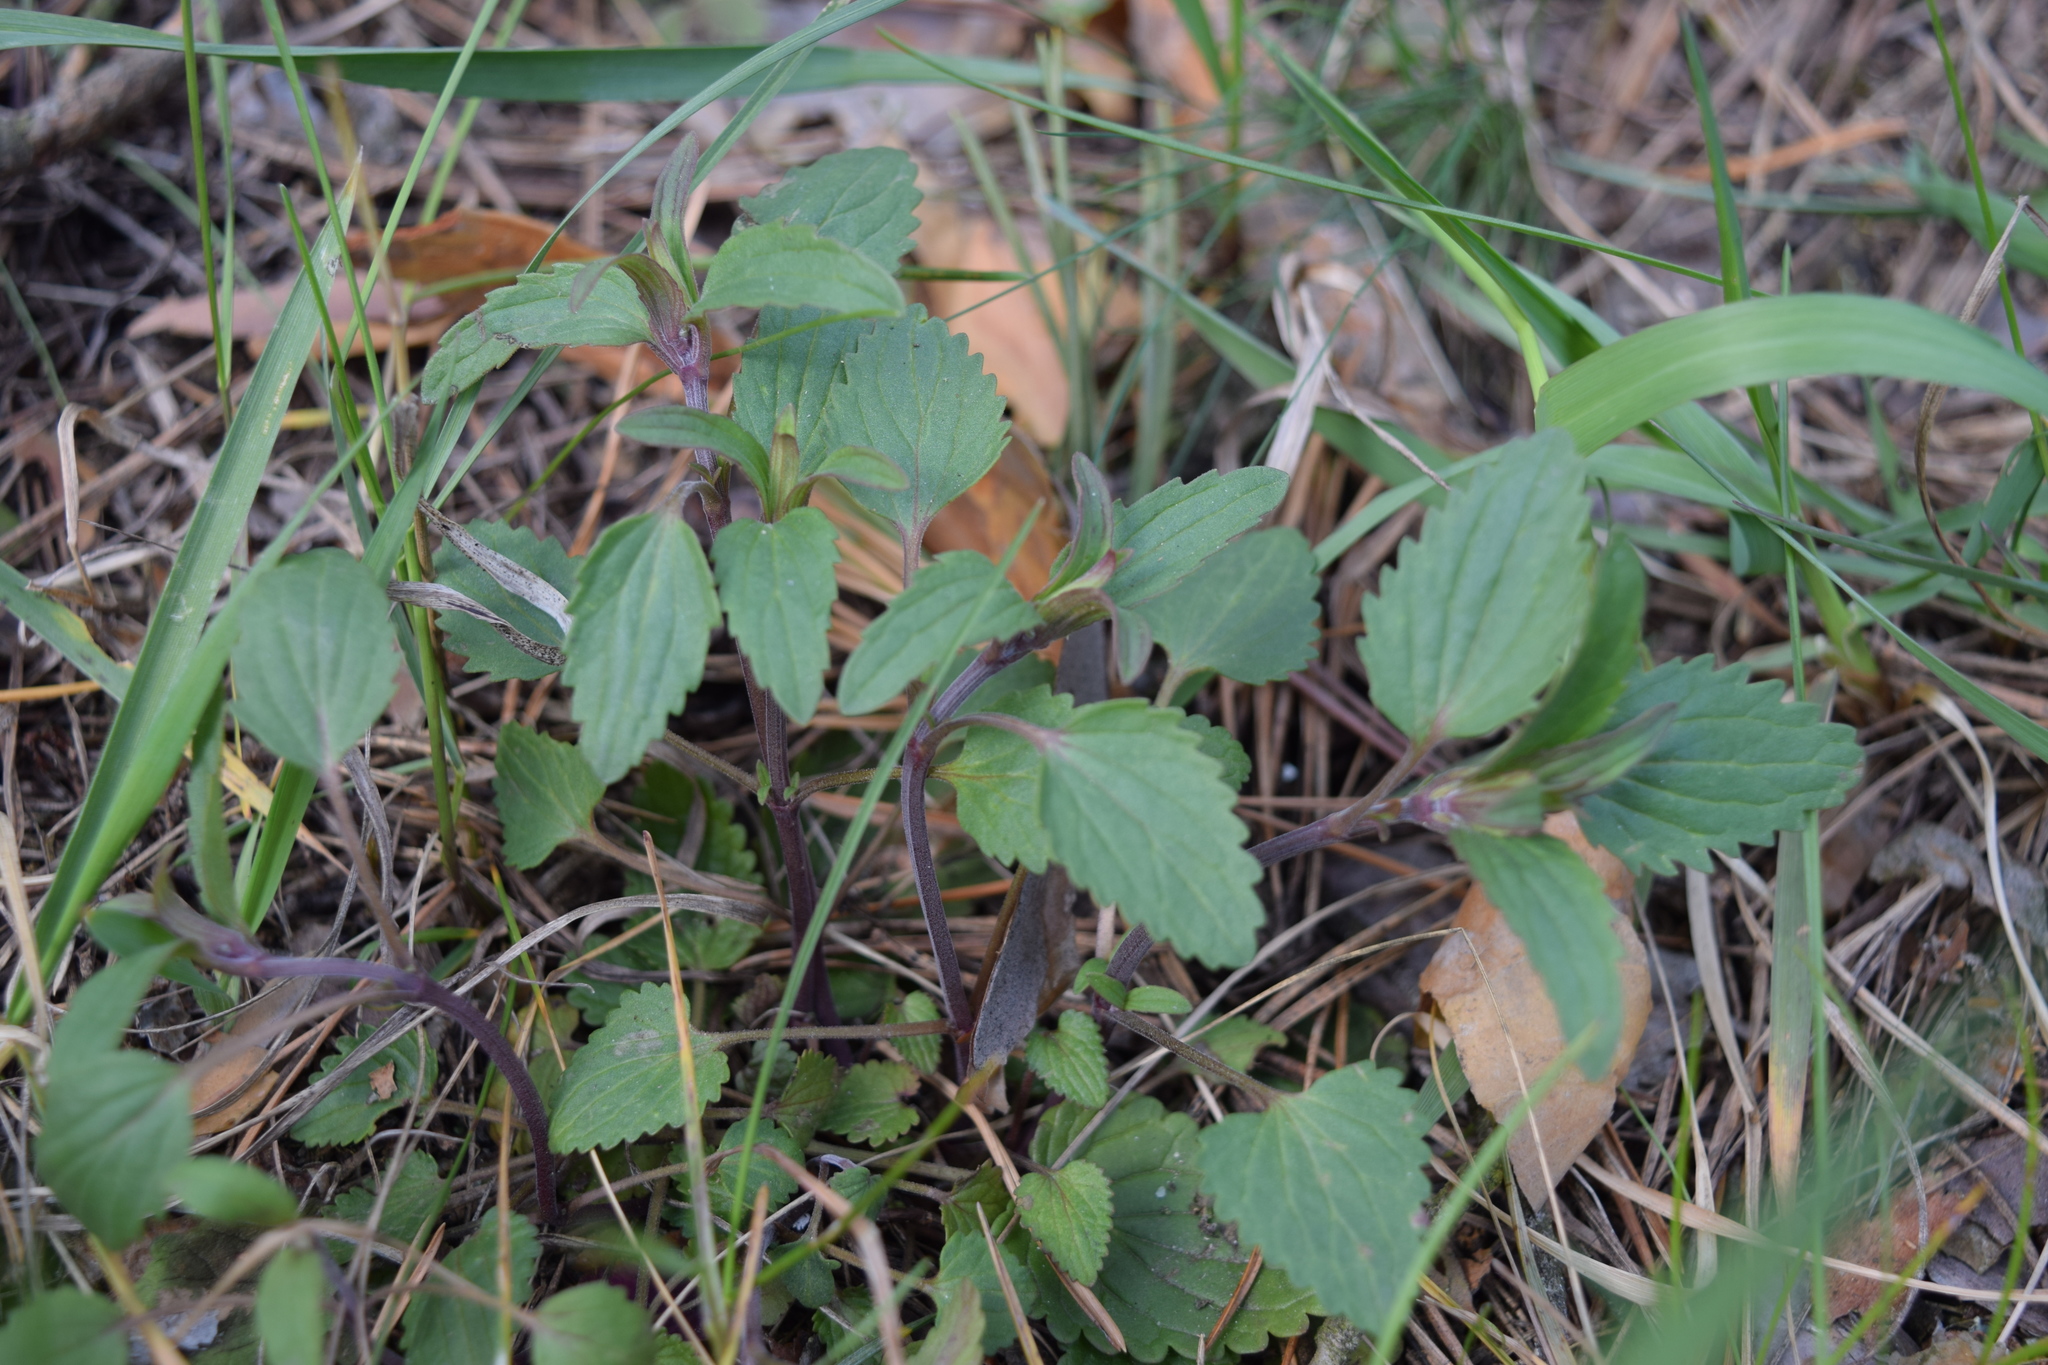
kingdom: Plantae
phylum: Tracheophyta
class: Magnoliopsida
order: Lamiales
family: Lamiaceae
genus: Dracocephalum
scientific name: Dracocephalum thymiflorum
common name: Thymeleaf dragonhead
